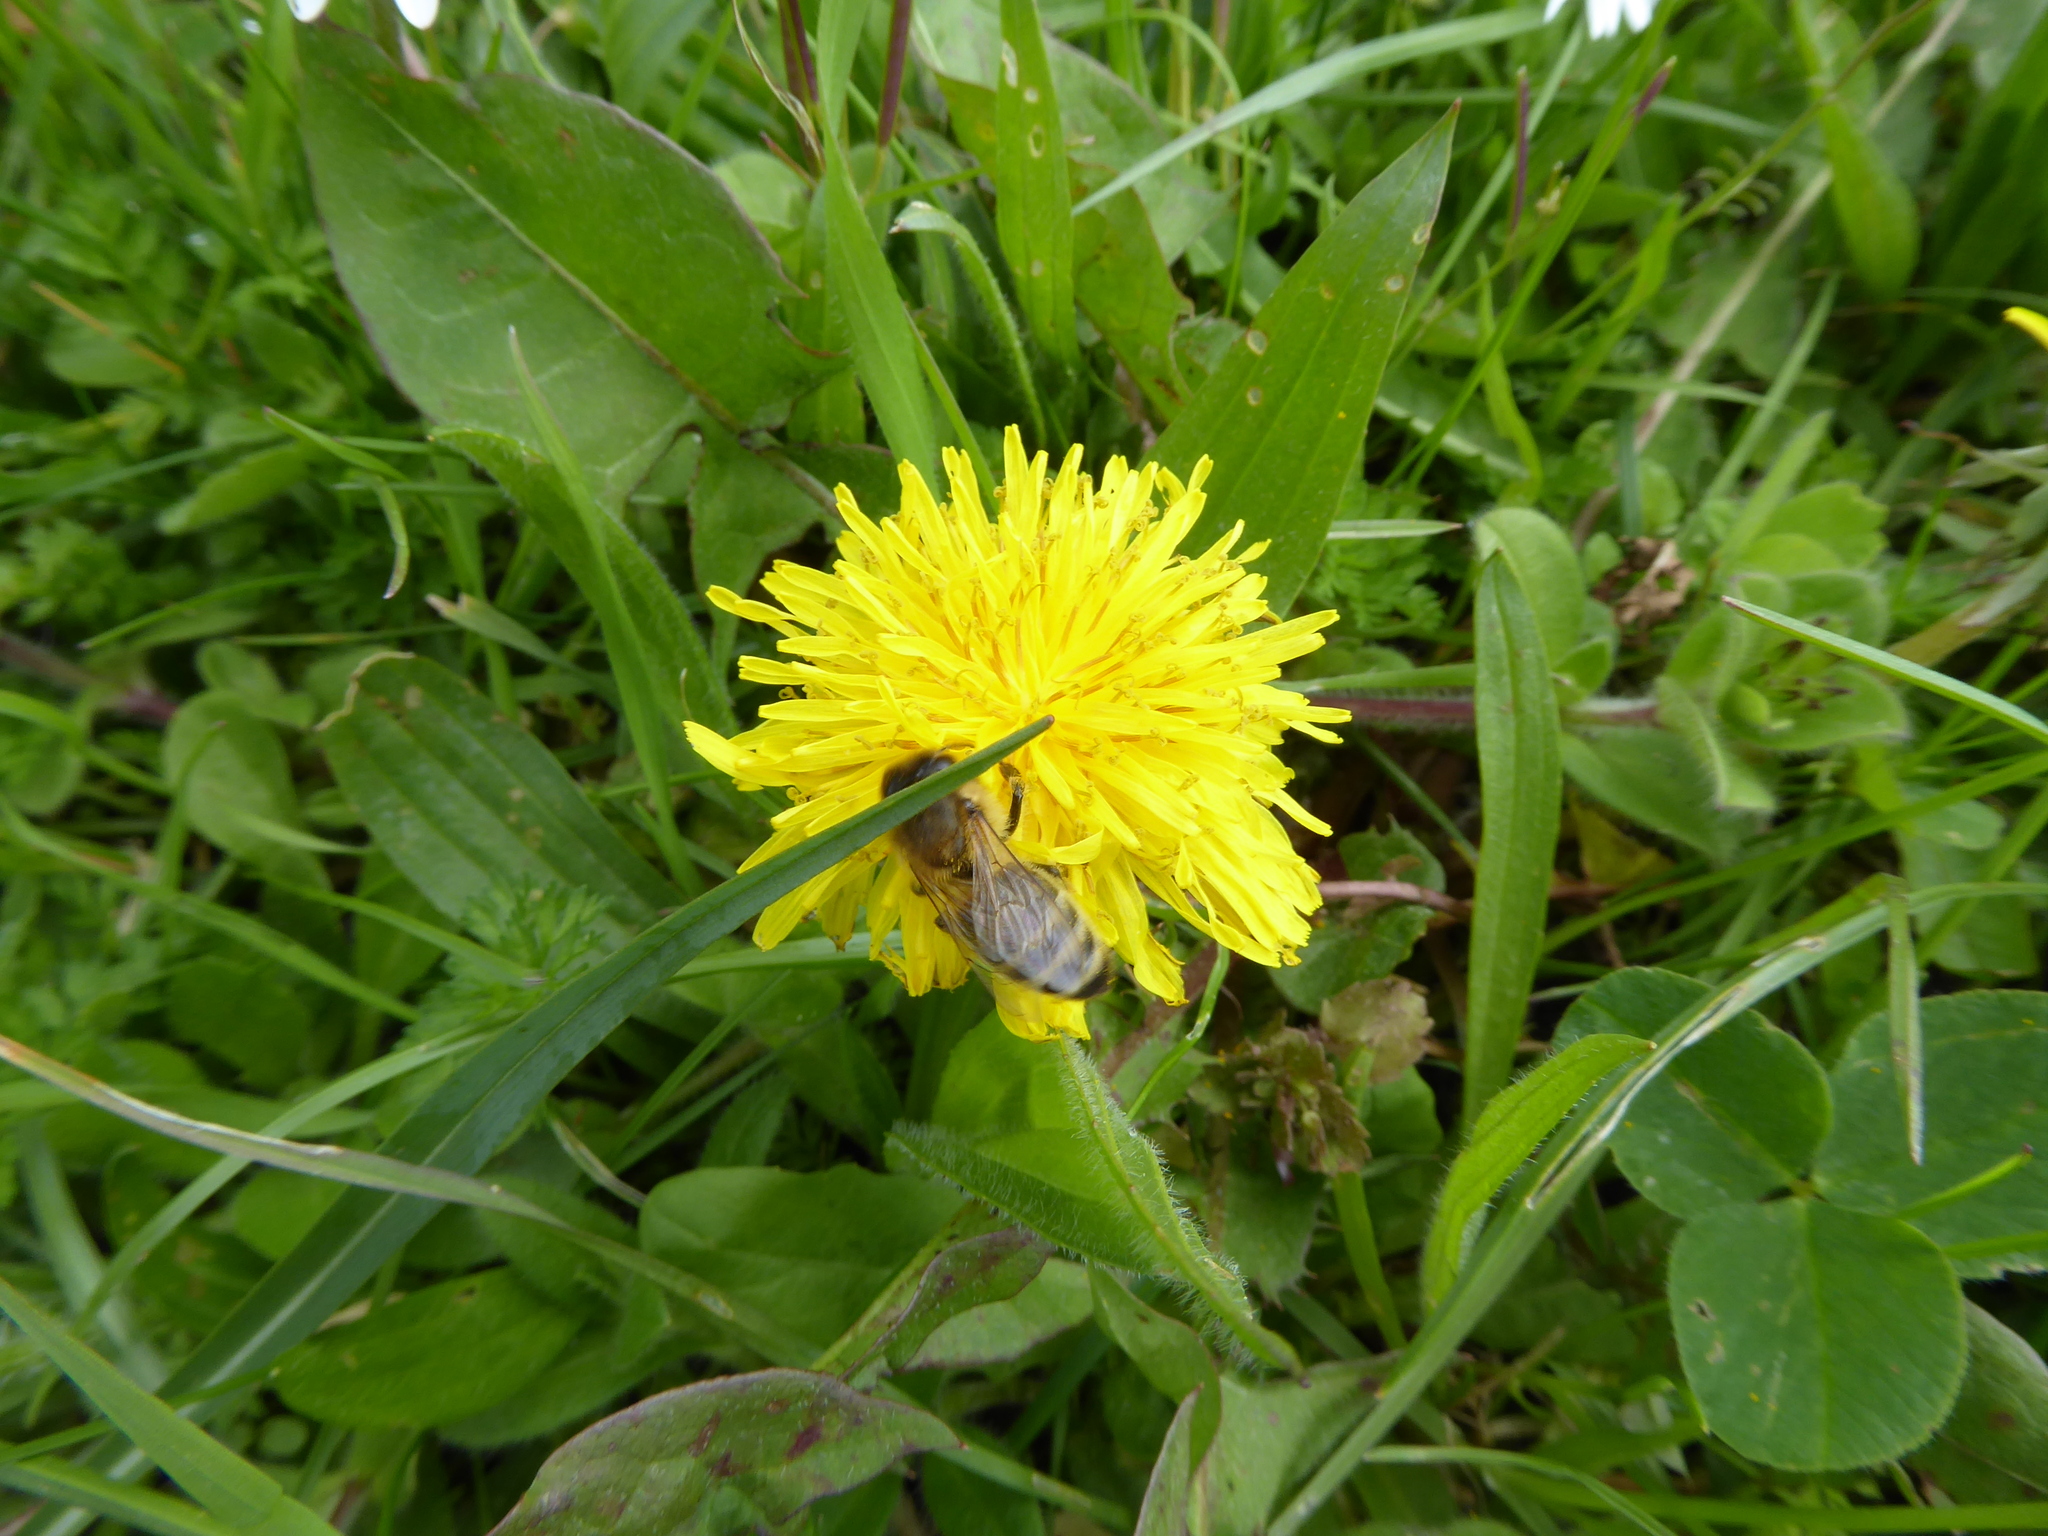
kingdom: Animalia
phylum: Arthropoda
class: Insecta
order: Hymenoptera
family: Apidae
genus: Apis
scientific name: Apis mellifera
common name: Honey bee
